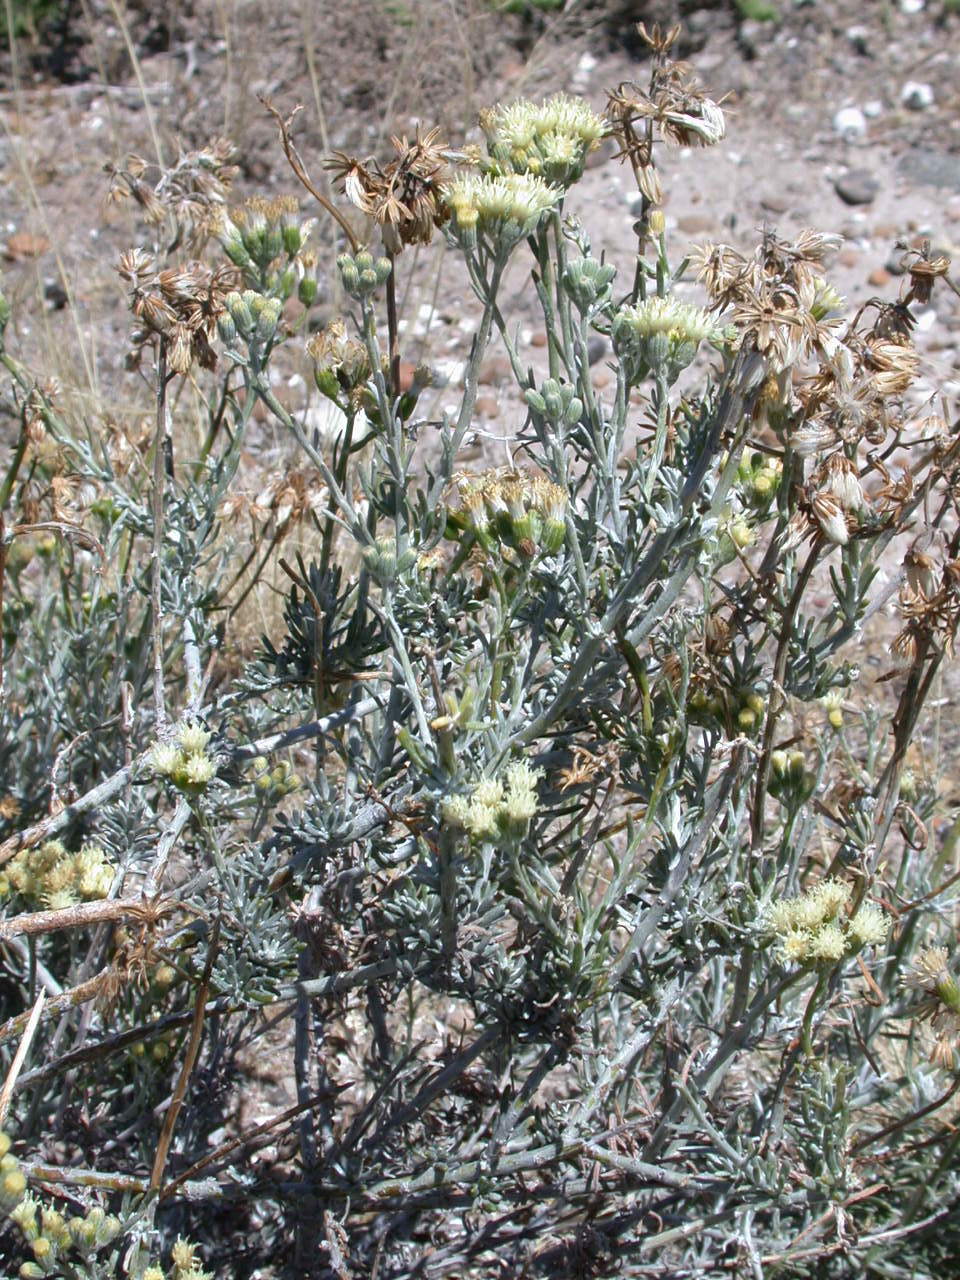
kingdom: Plantae
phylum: Tracheophyta
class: Magnoliopsida
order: Asterales
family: Asteraceae
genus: Senecio
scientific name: Senecio filaginoides
